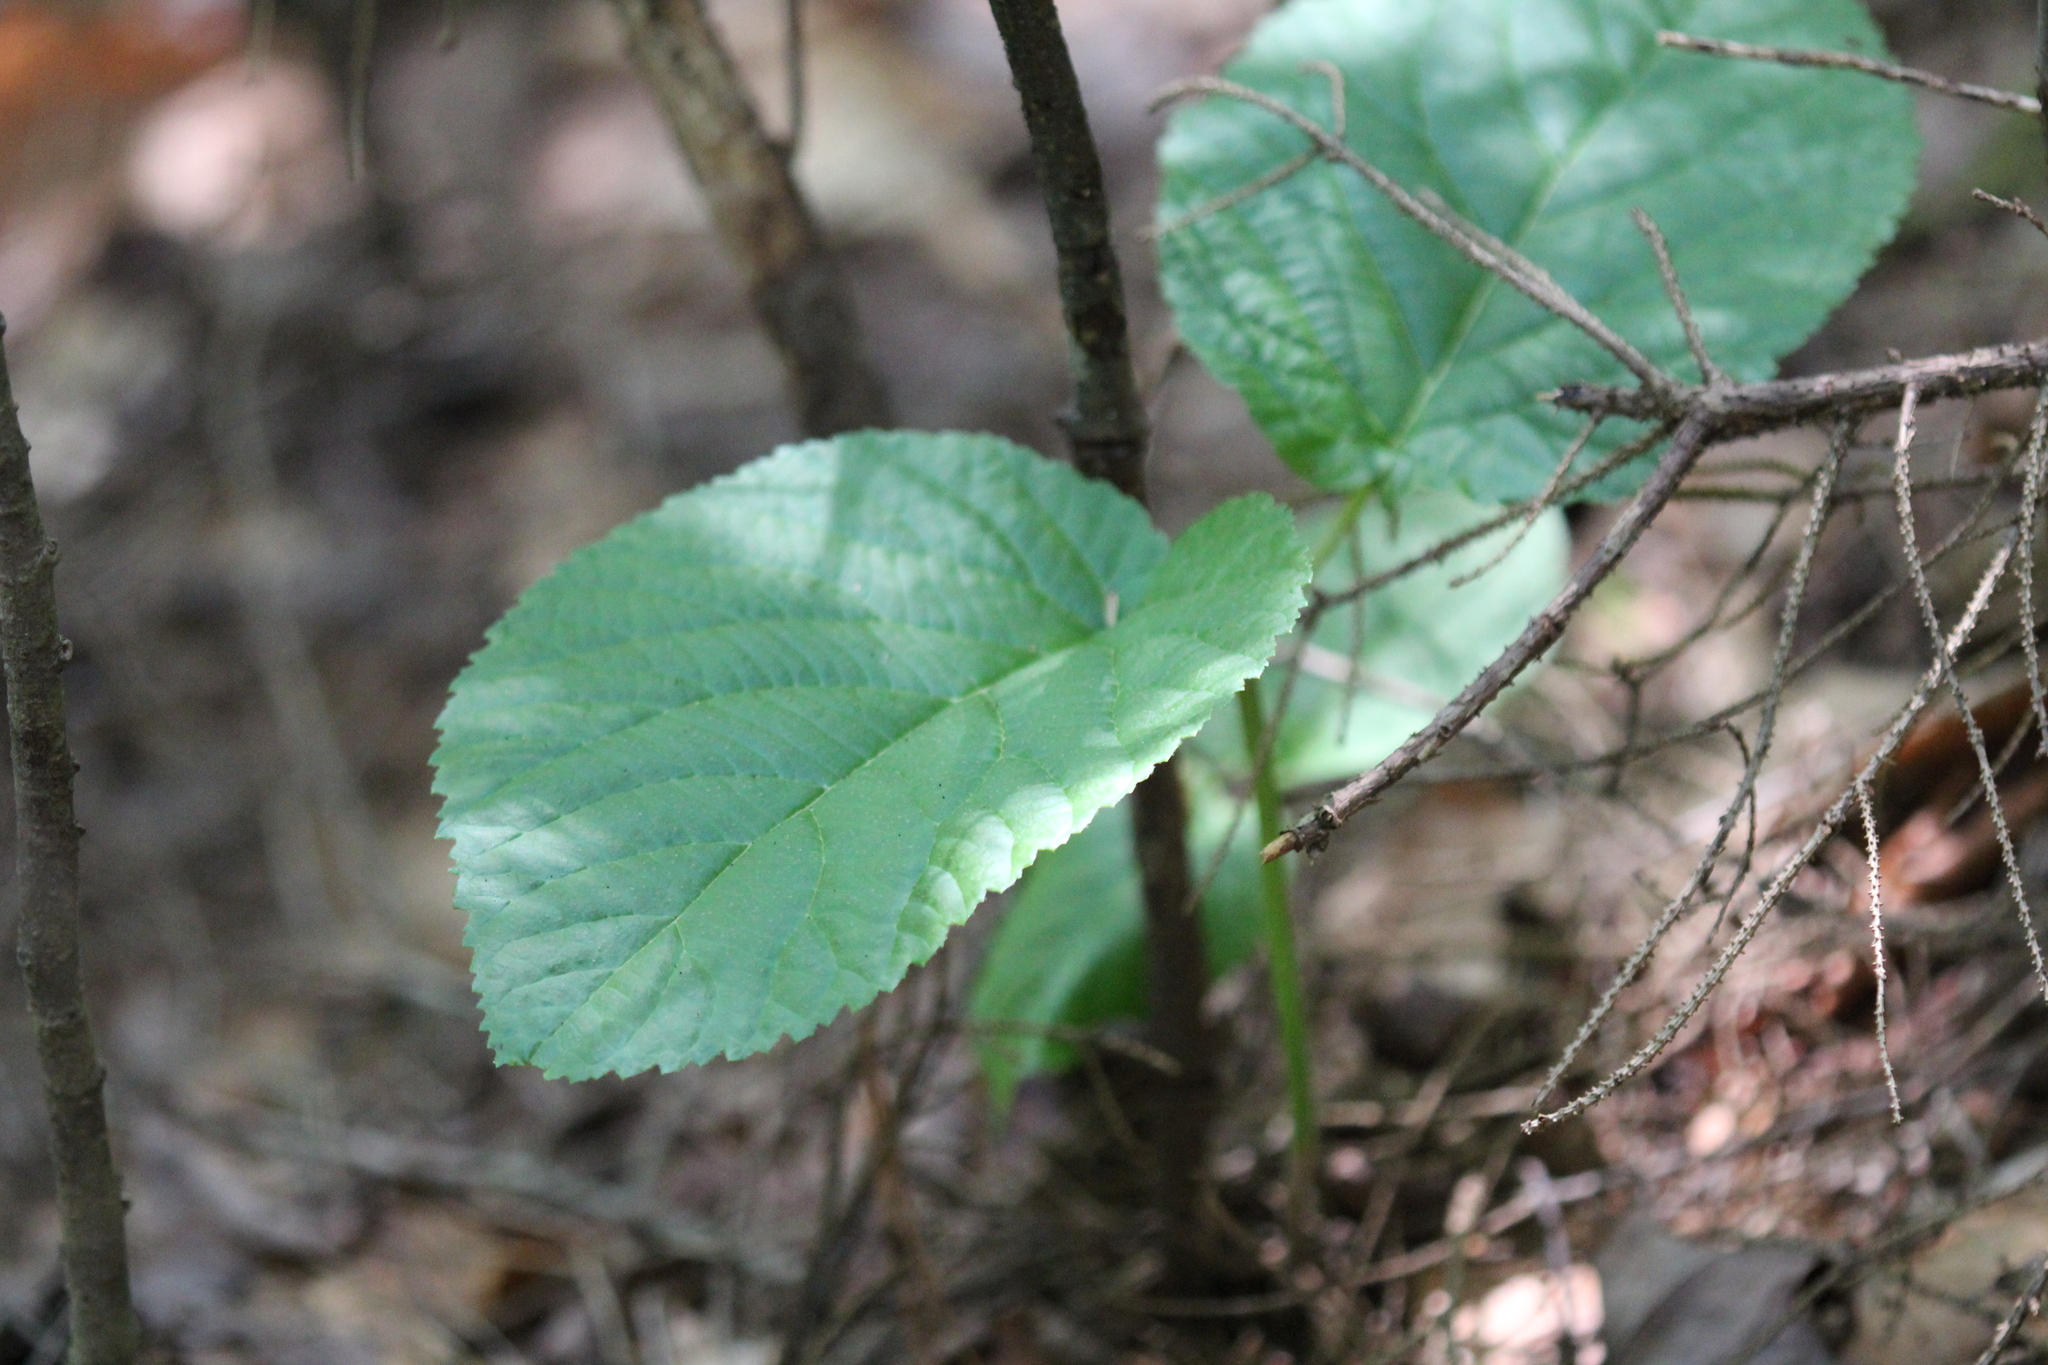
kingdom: Plantae
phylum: Tracheophyta
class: Magnoliopsida
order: Dipsacales
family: Viburnaceae
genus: Viburnum
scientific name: Viburnum lantanoides
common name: Hobblebush
